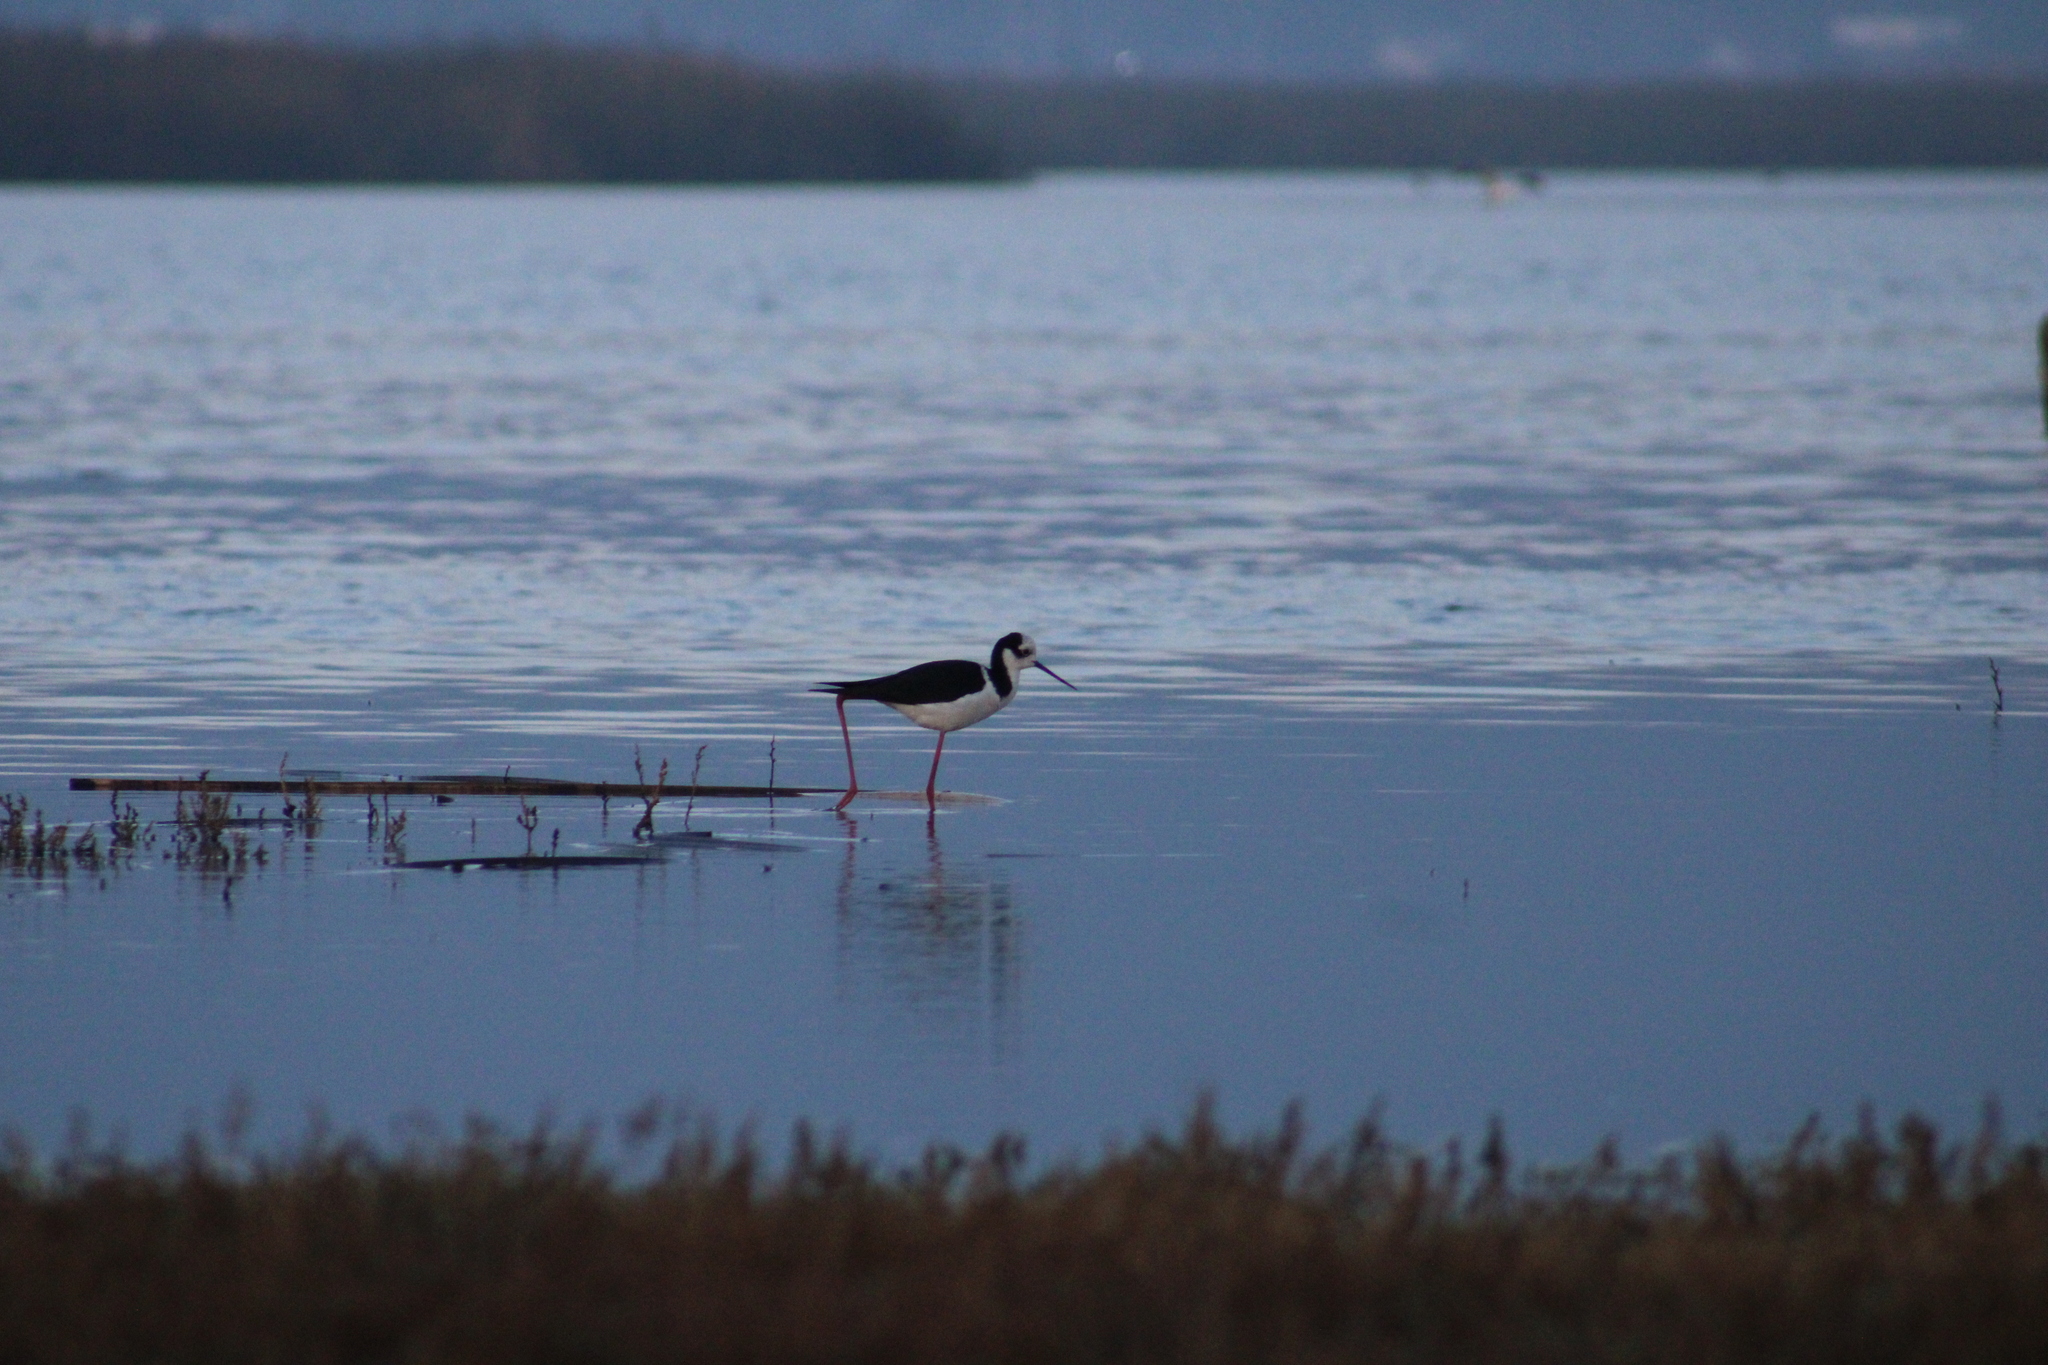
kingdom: Animalia
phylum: Chordata
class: Aves
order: Charadriiformes
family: Recurvirostridae
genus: Himantopus
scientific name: Himantopus mexicanus
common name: Black-necked stilt
